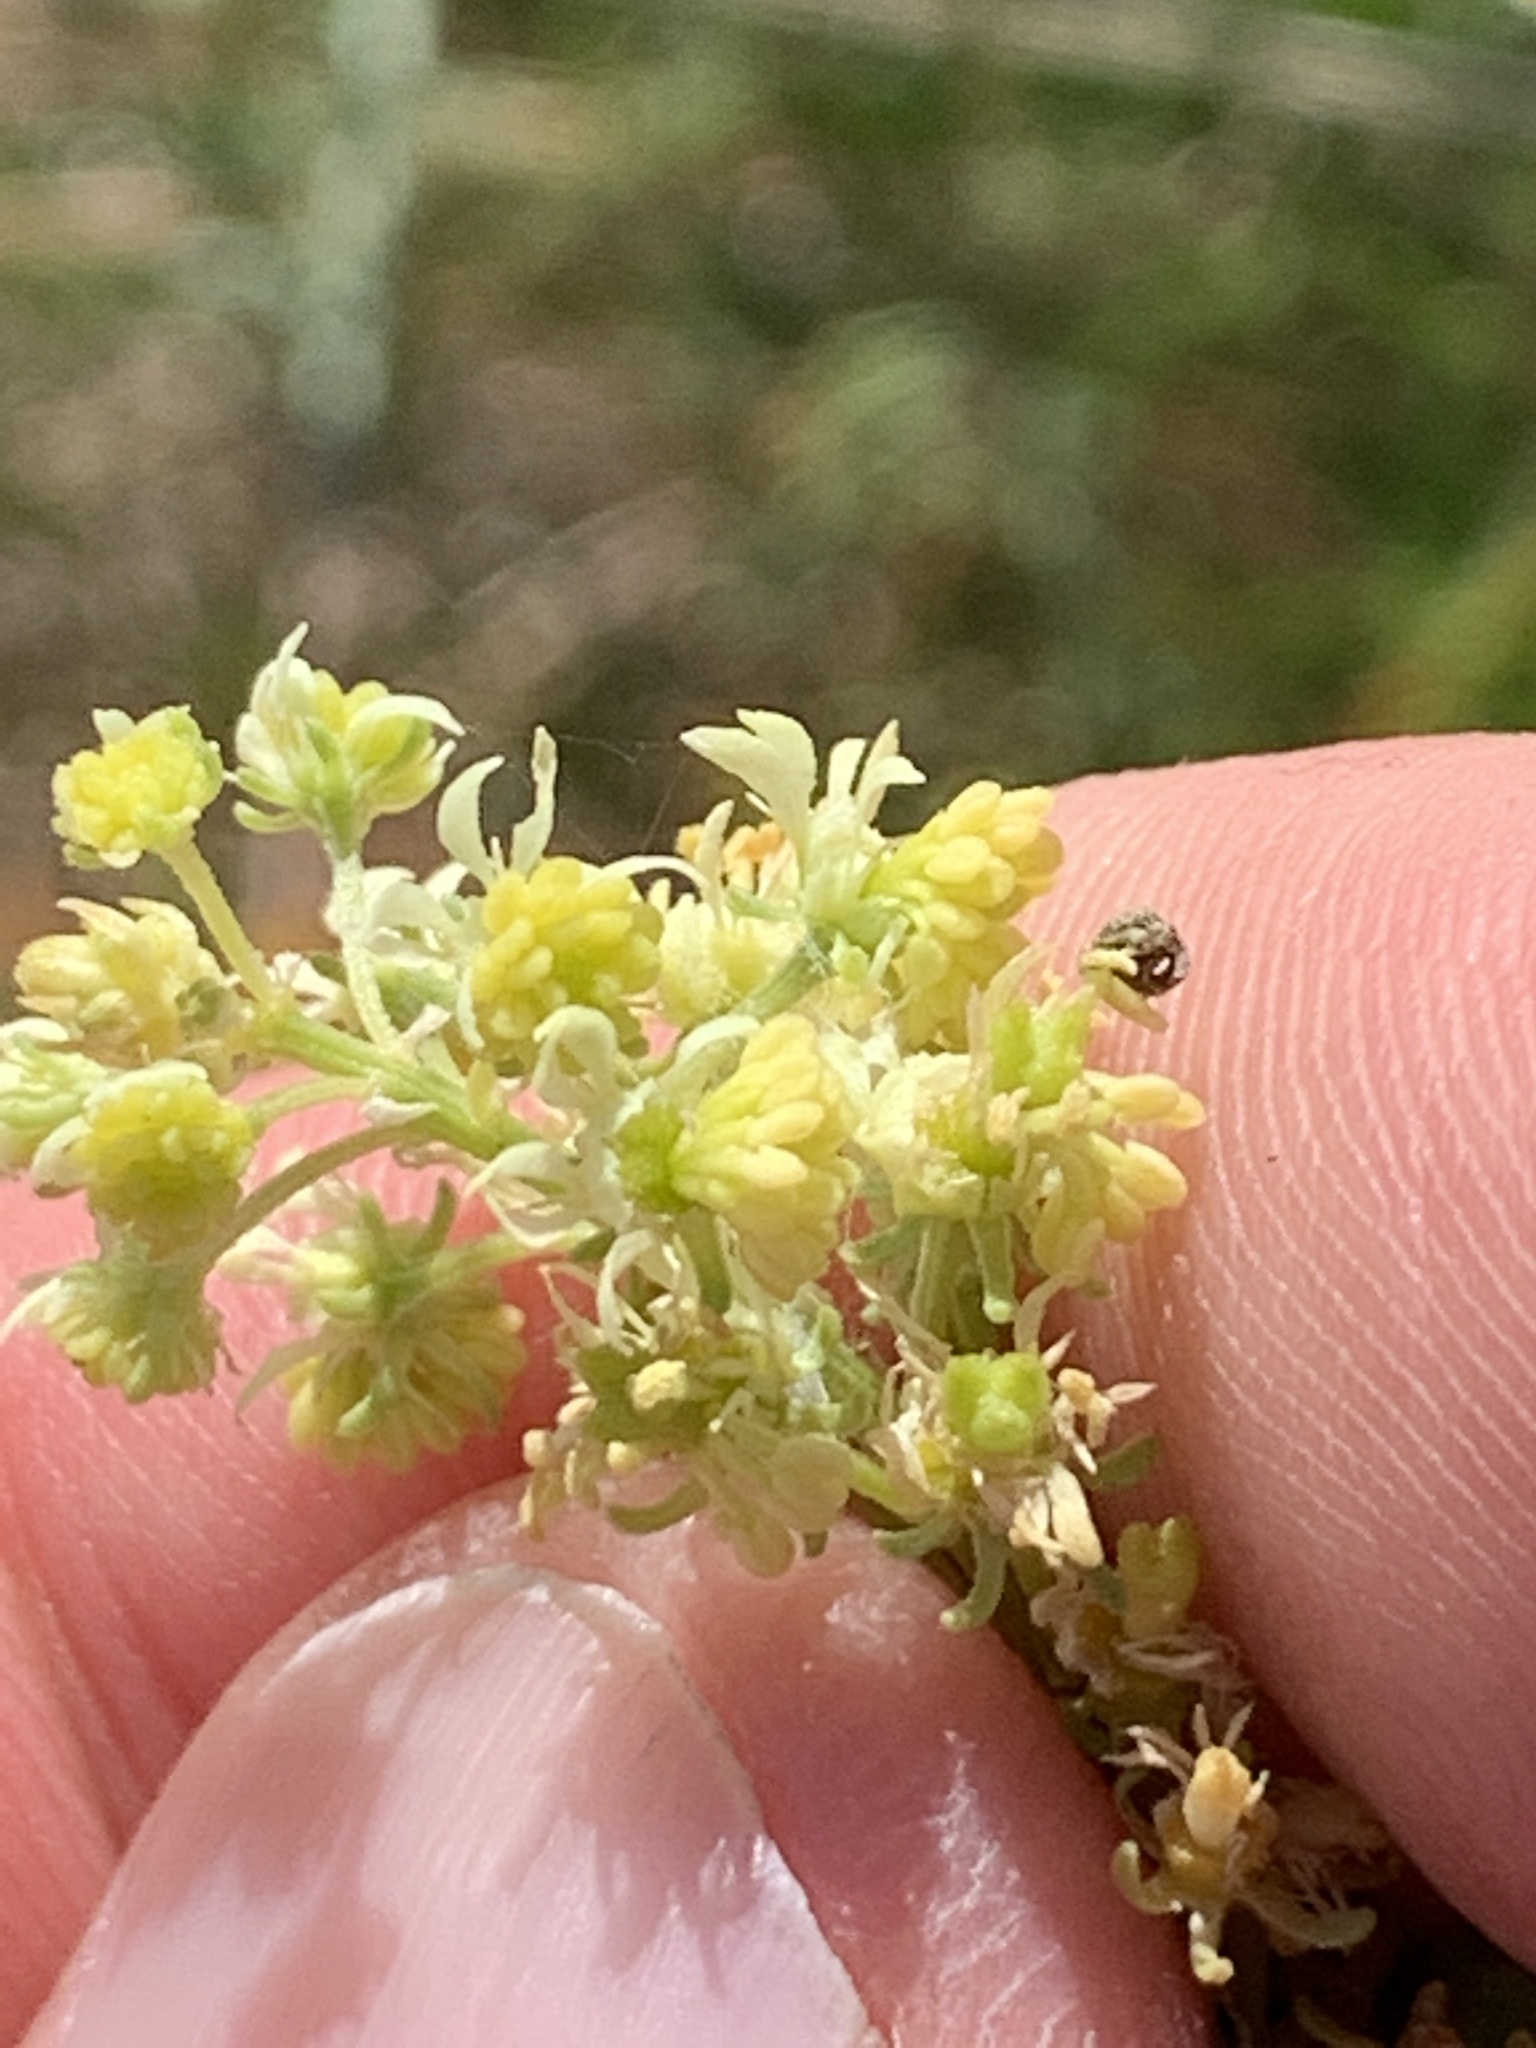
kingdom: Plantae
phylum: Tracheophyta
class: Magnoliopsida
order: Brassicales
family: Resedaceae
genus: Reseda
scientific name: Reseda lutea
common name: Wild mignonette
